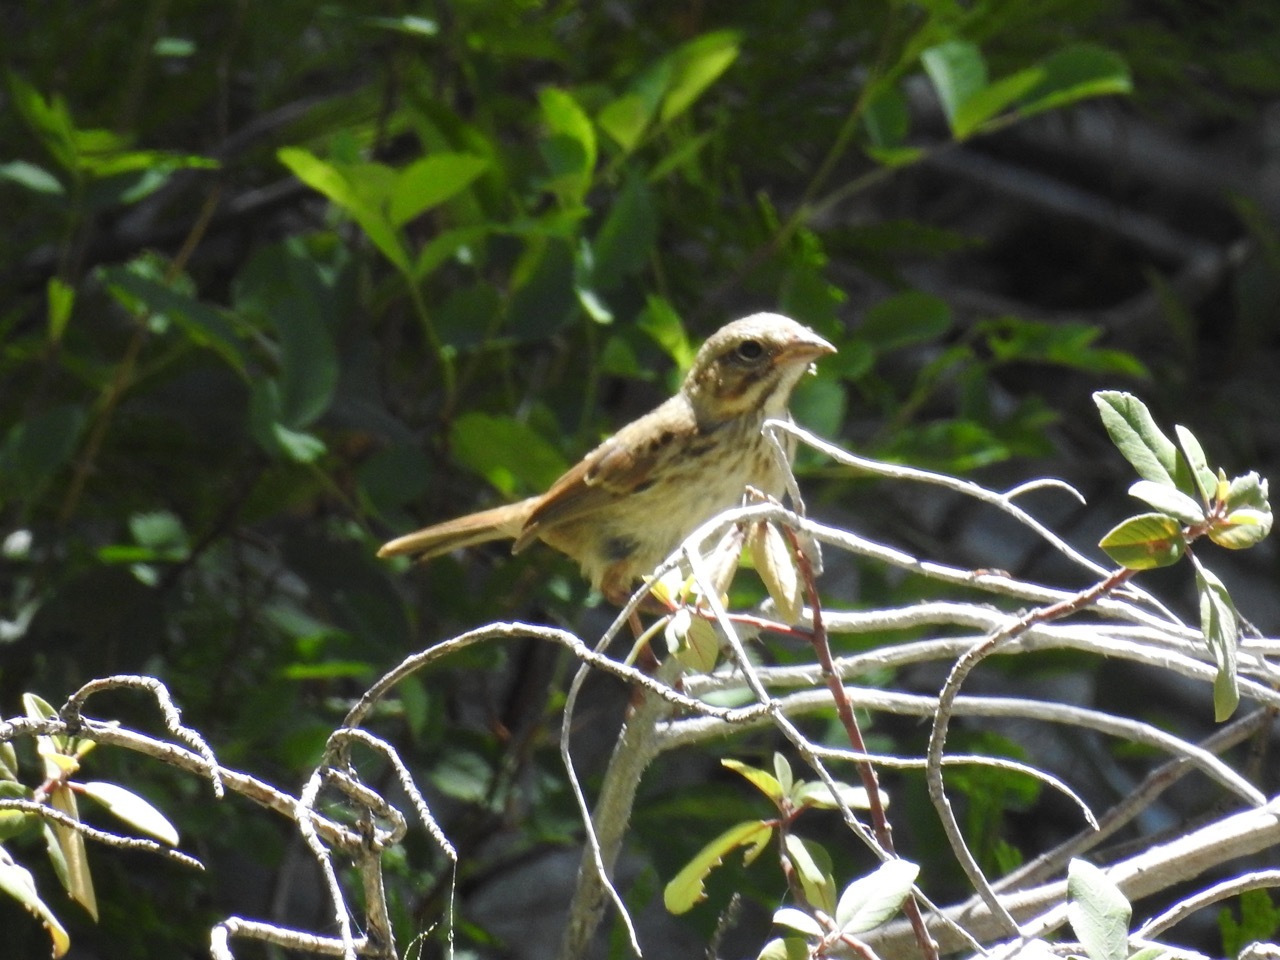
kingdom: Animalia
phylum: Chordata
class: Aves
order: Passeriformes
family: Passerellidae
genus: Melospiza
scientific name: Melospiza melodia
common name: Song sparrow
